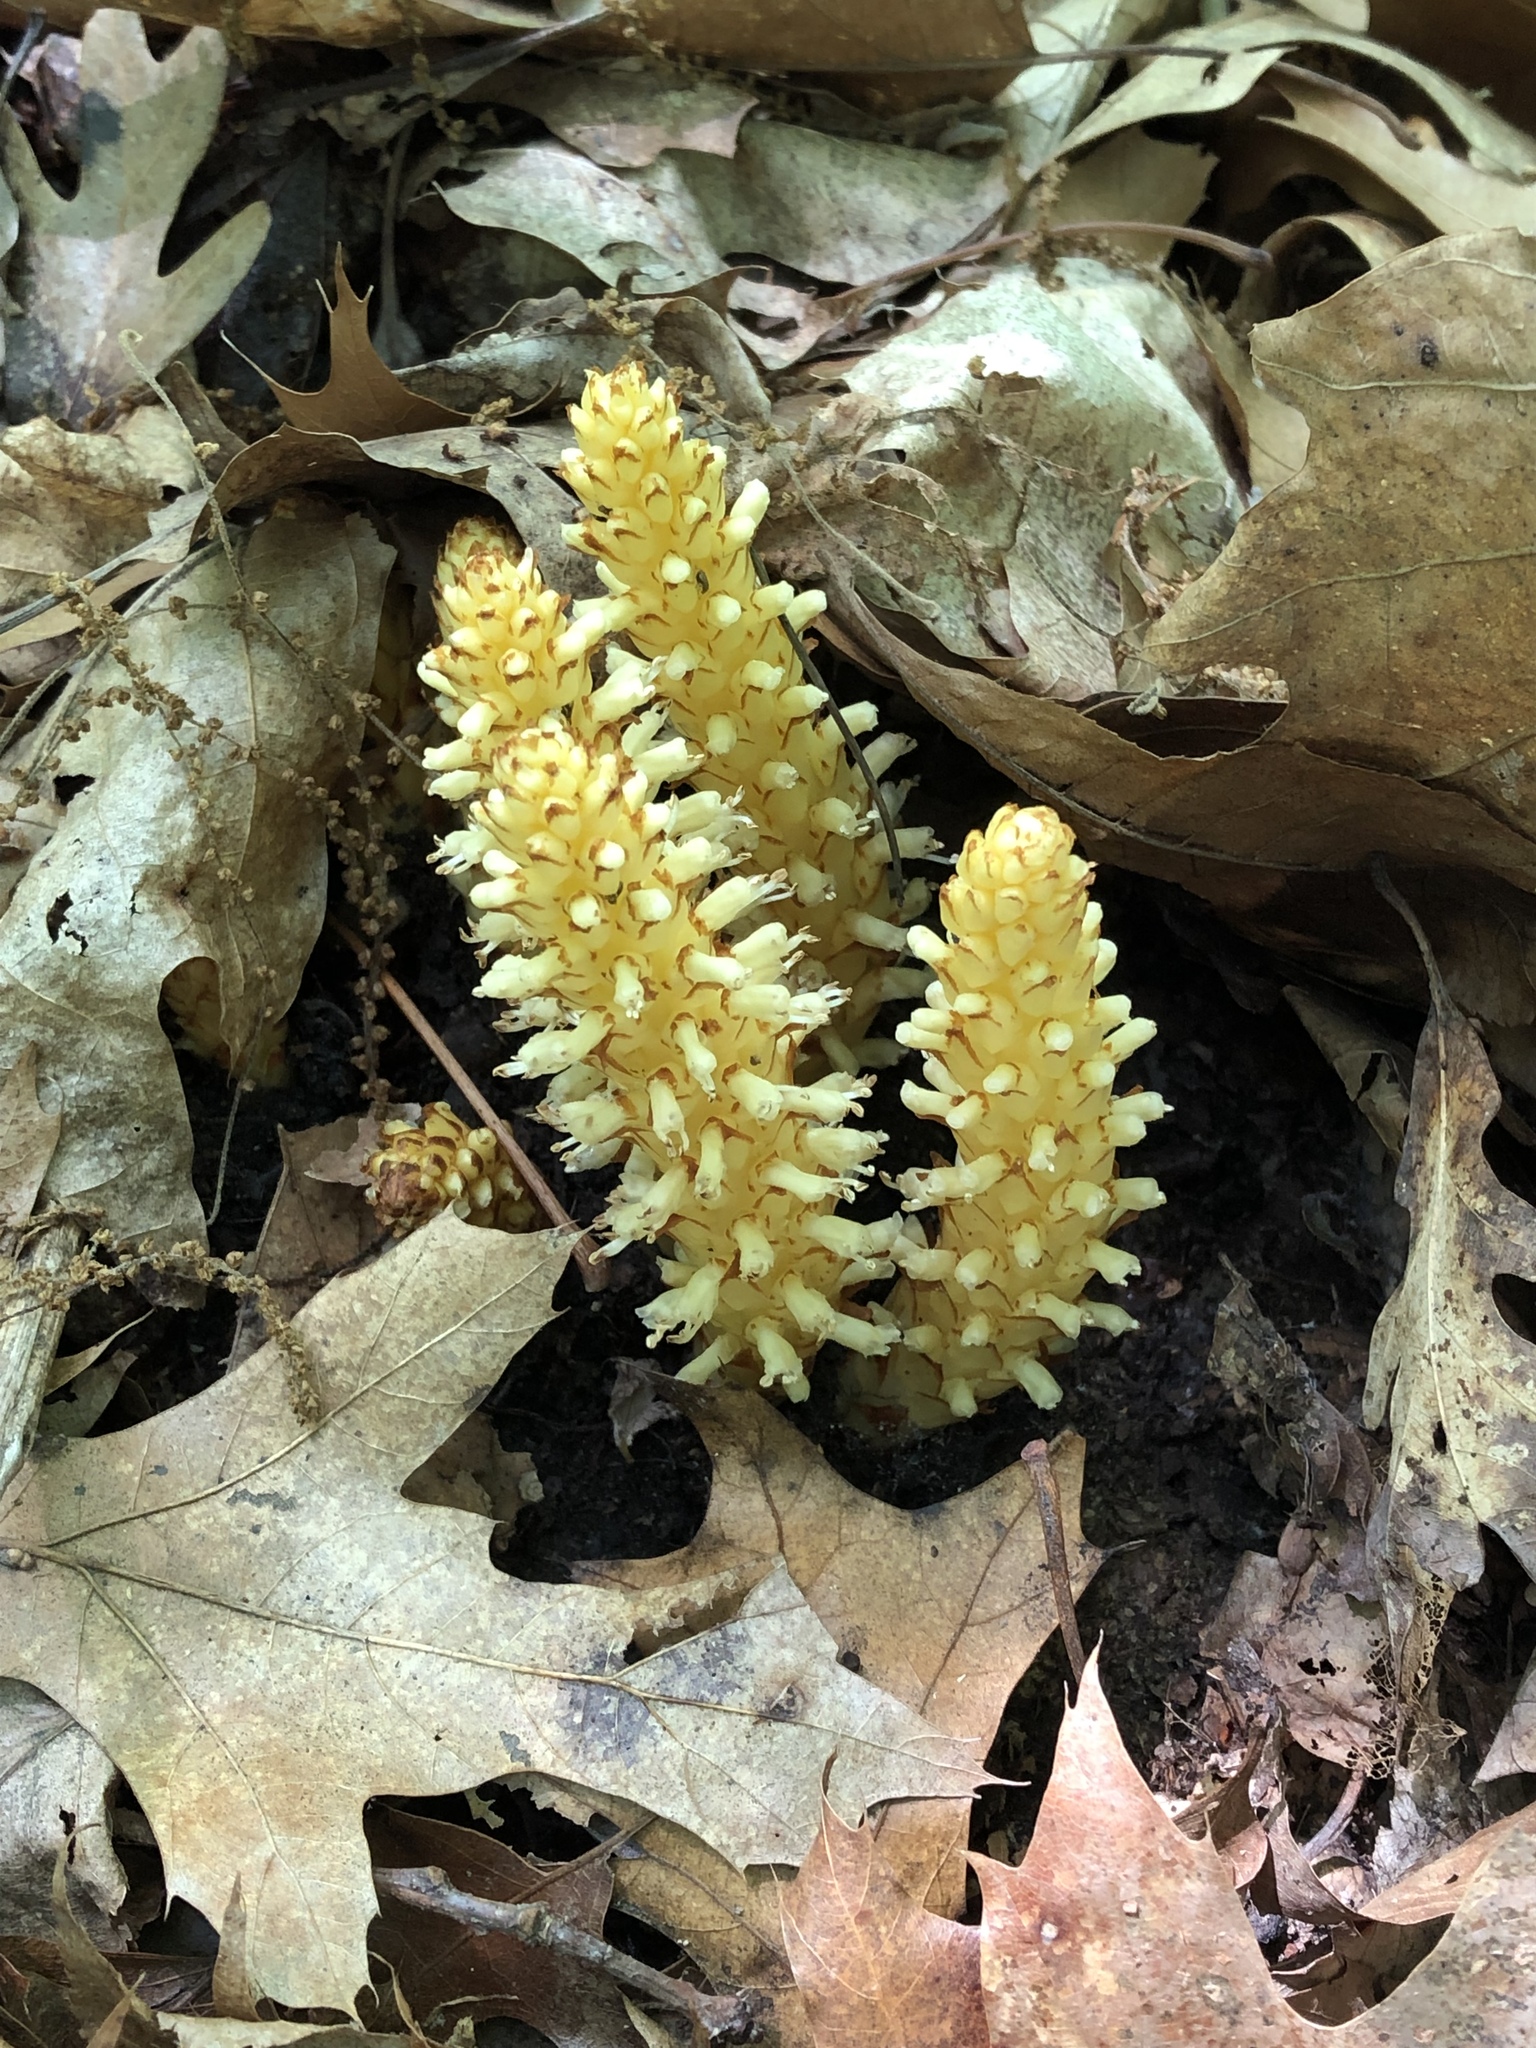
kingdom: Plantae
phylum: Tracheophyta
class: Magnoliopsida
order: Lamiales
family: Orobanchaceae
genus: Conopholis
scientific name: Conopholis americana
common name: American cancer-root
